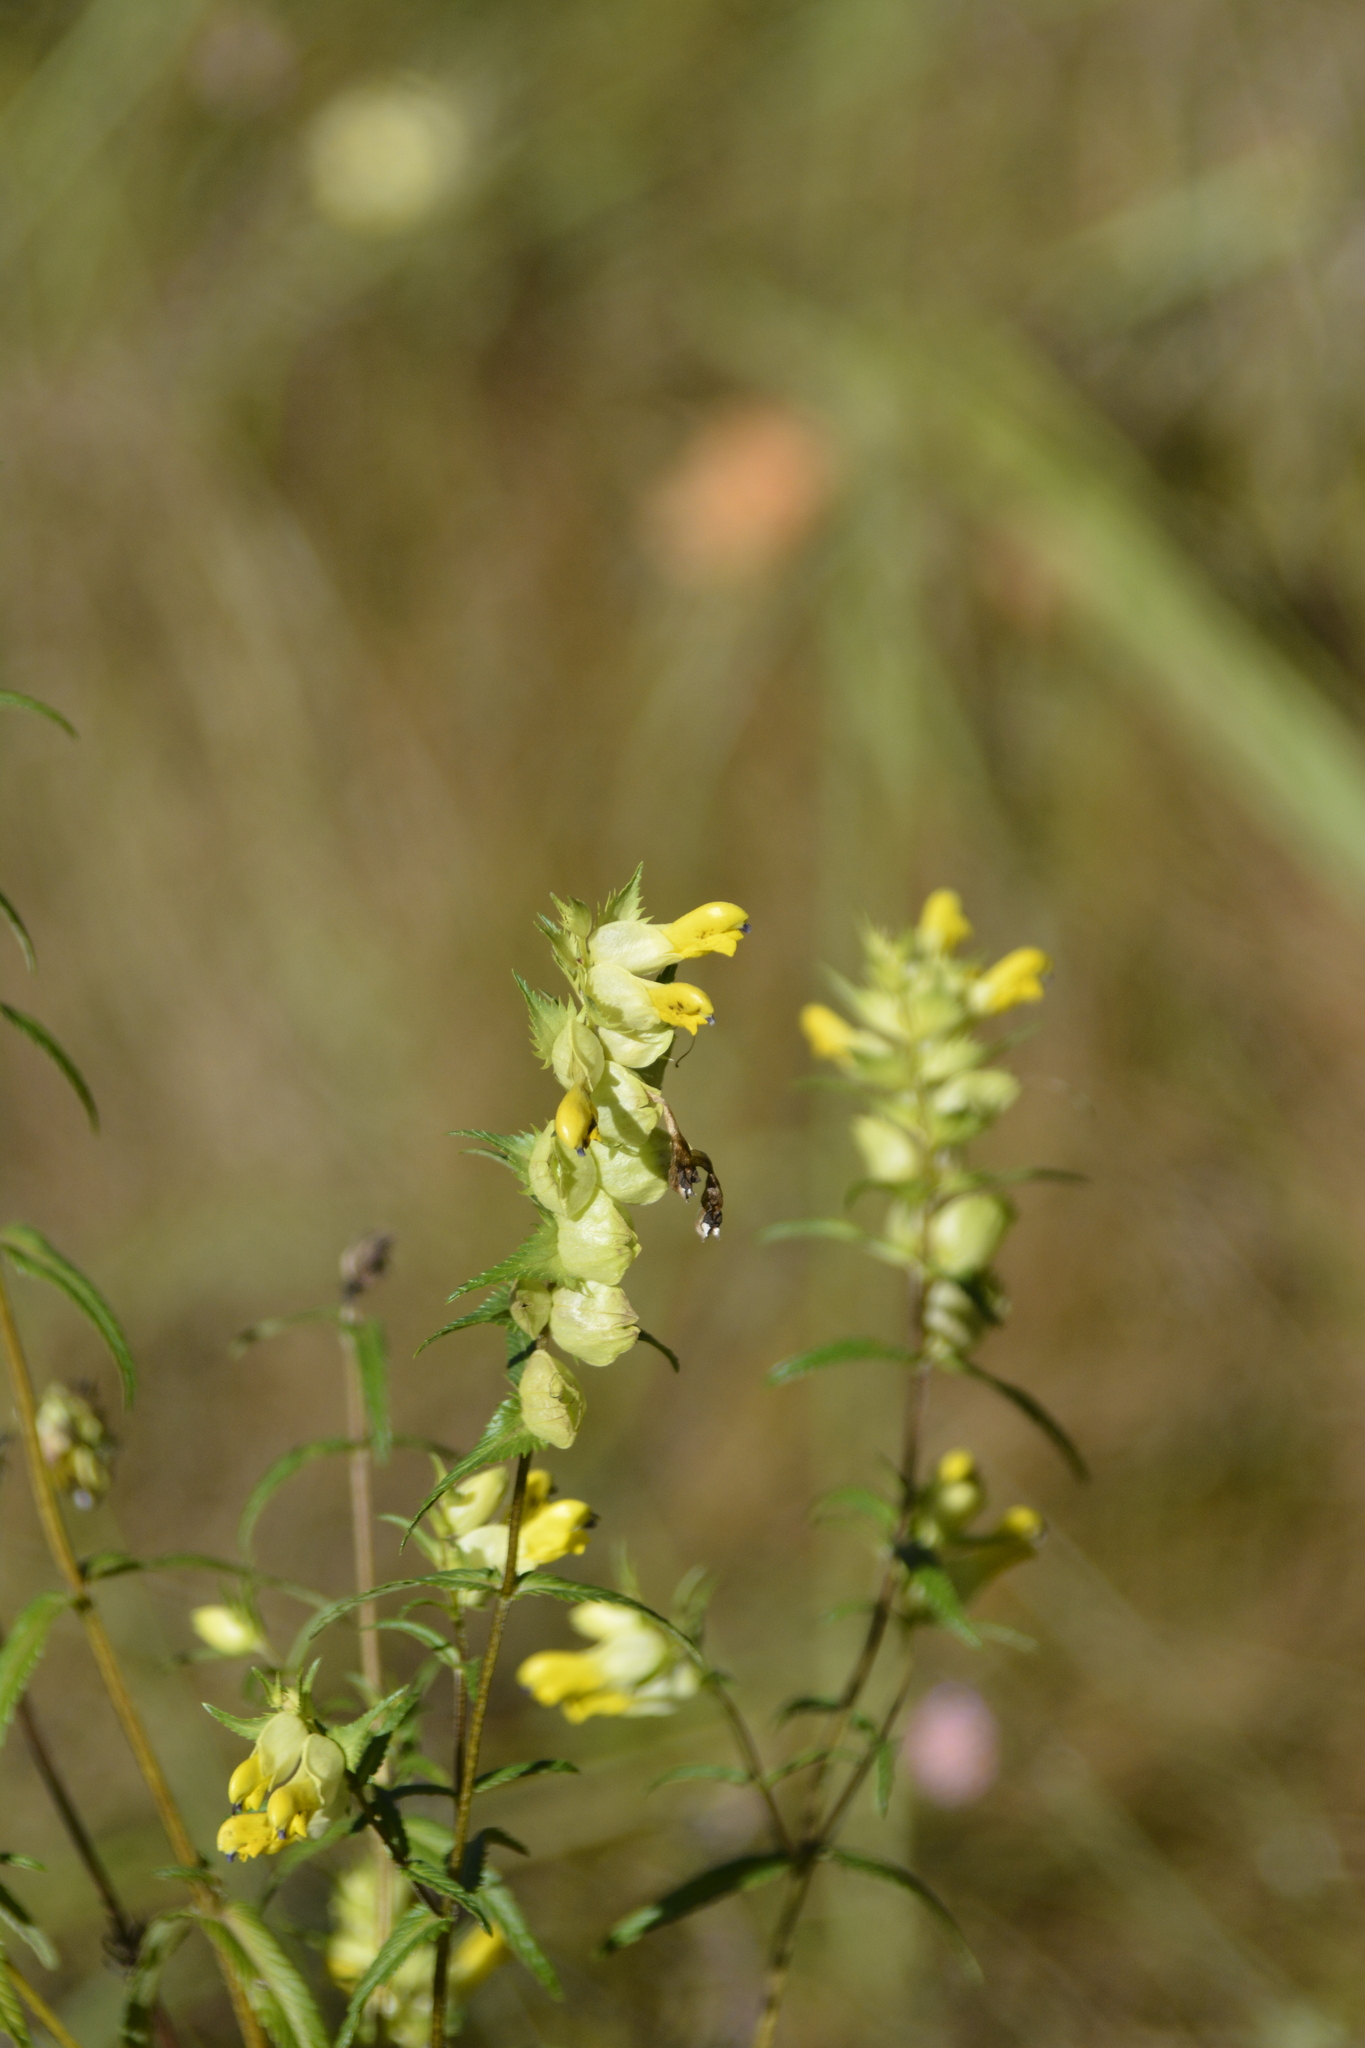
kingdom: Plantae
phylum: Tracheophyta
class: Magnoliopsida
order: Lamiales
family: Orobanchaceae
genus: Rhinanthus
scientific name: Rhinanthus serotinus
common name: Late-flowering yellow rattle
